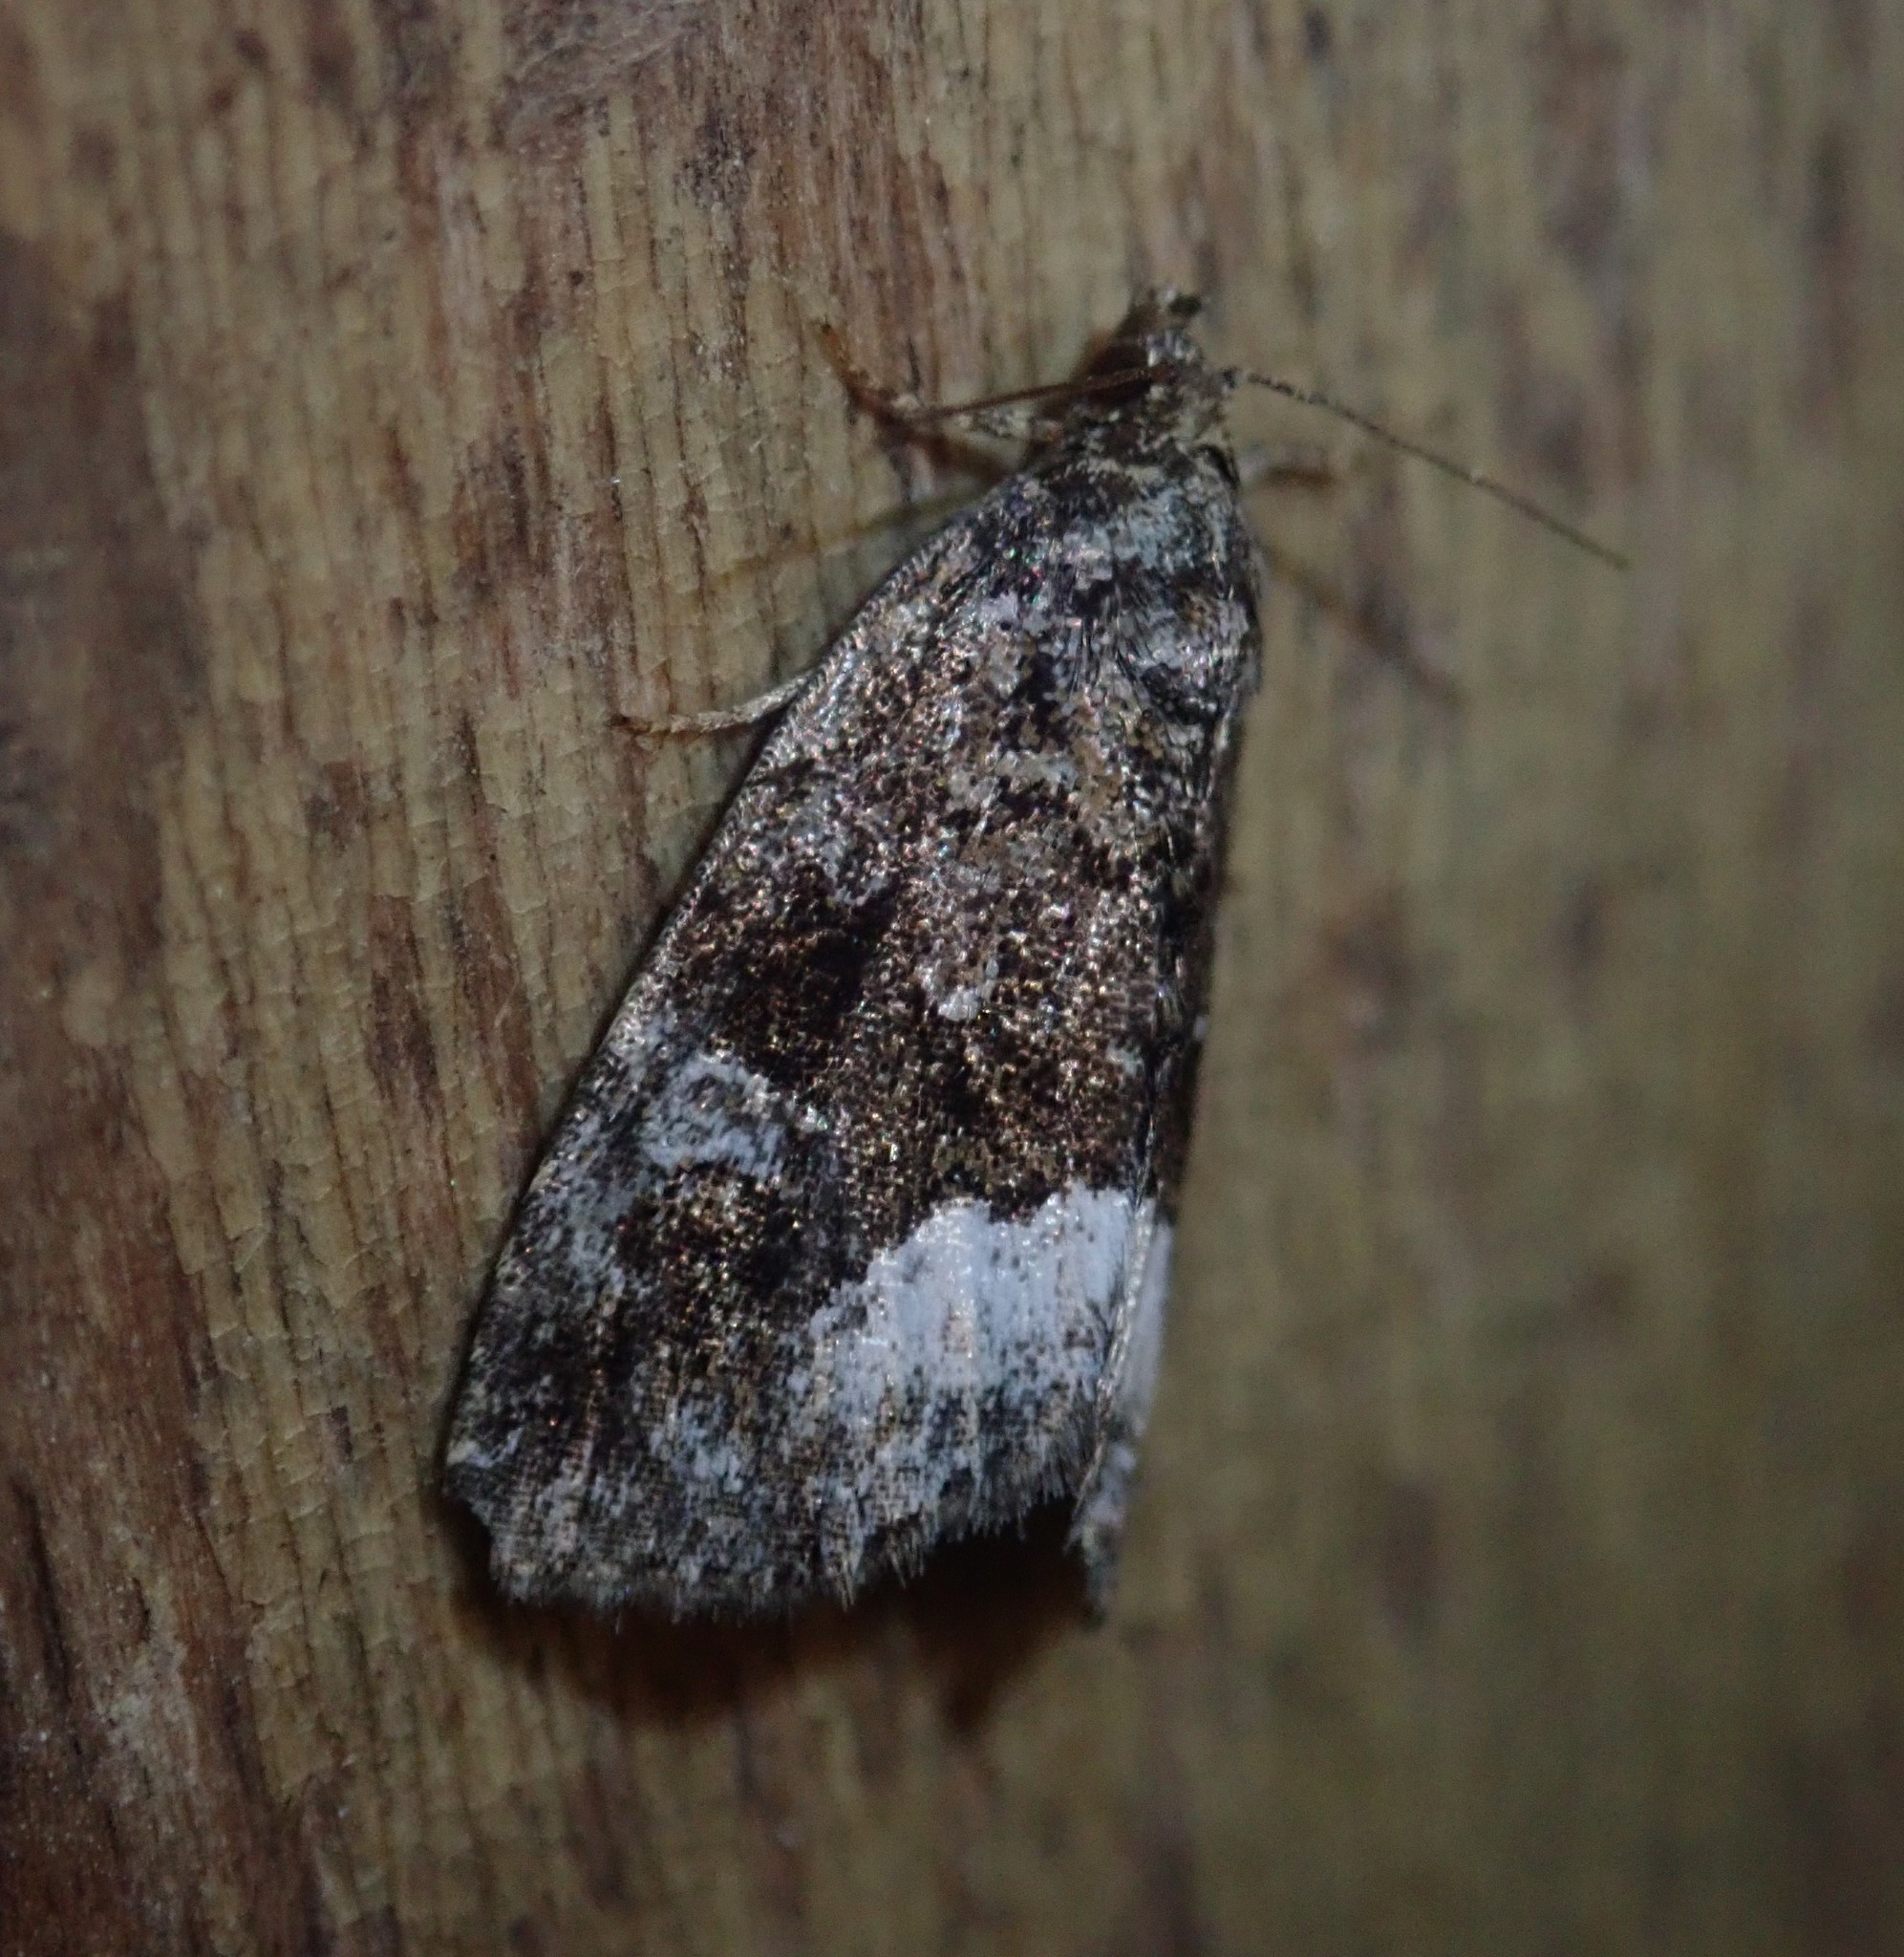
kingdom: Animalia
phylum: Arthropoda
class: Insecta
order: Lepidoptera
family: Noctuidae
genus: Deltote
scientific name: Deltote pygarga
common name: Marbled white spot
